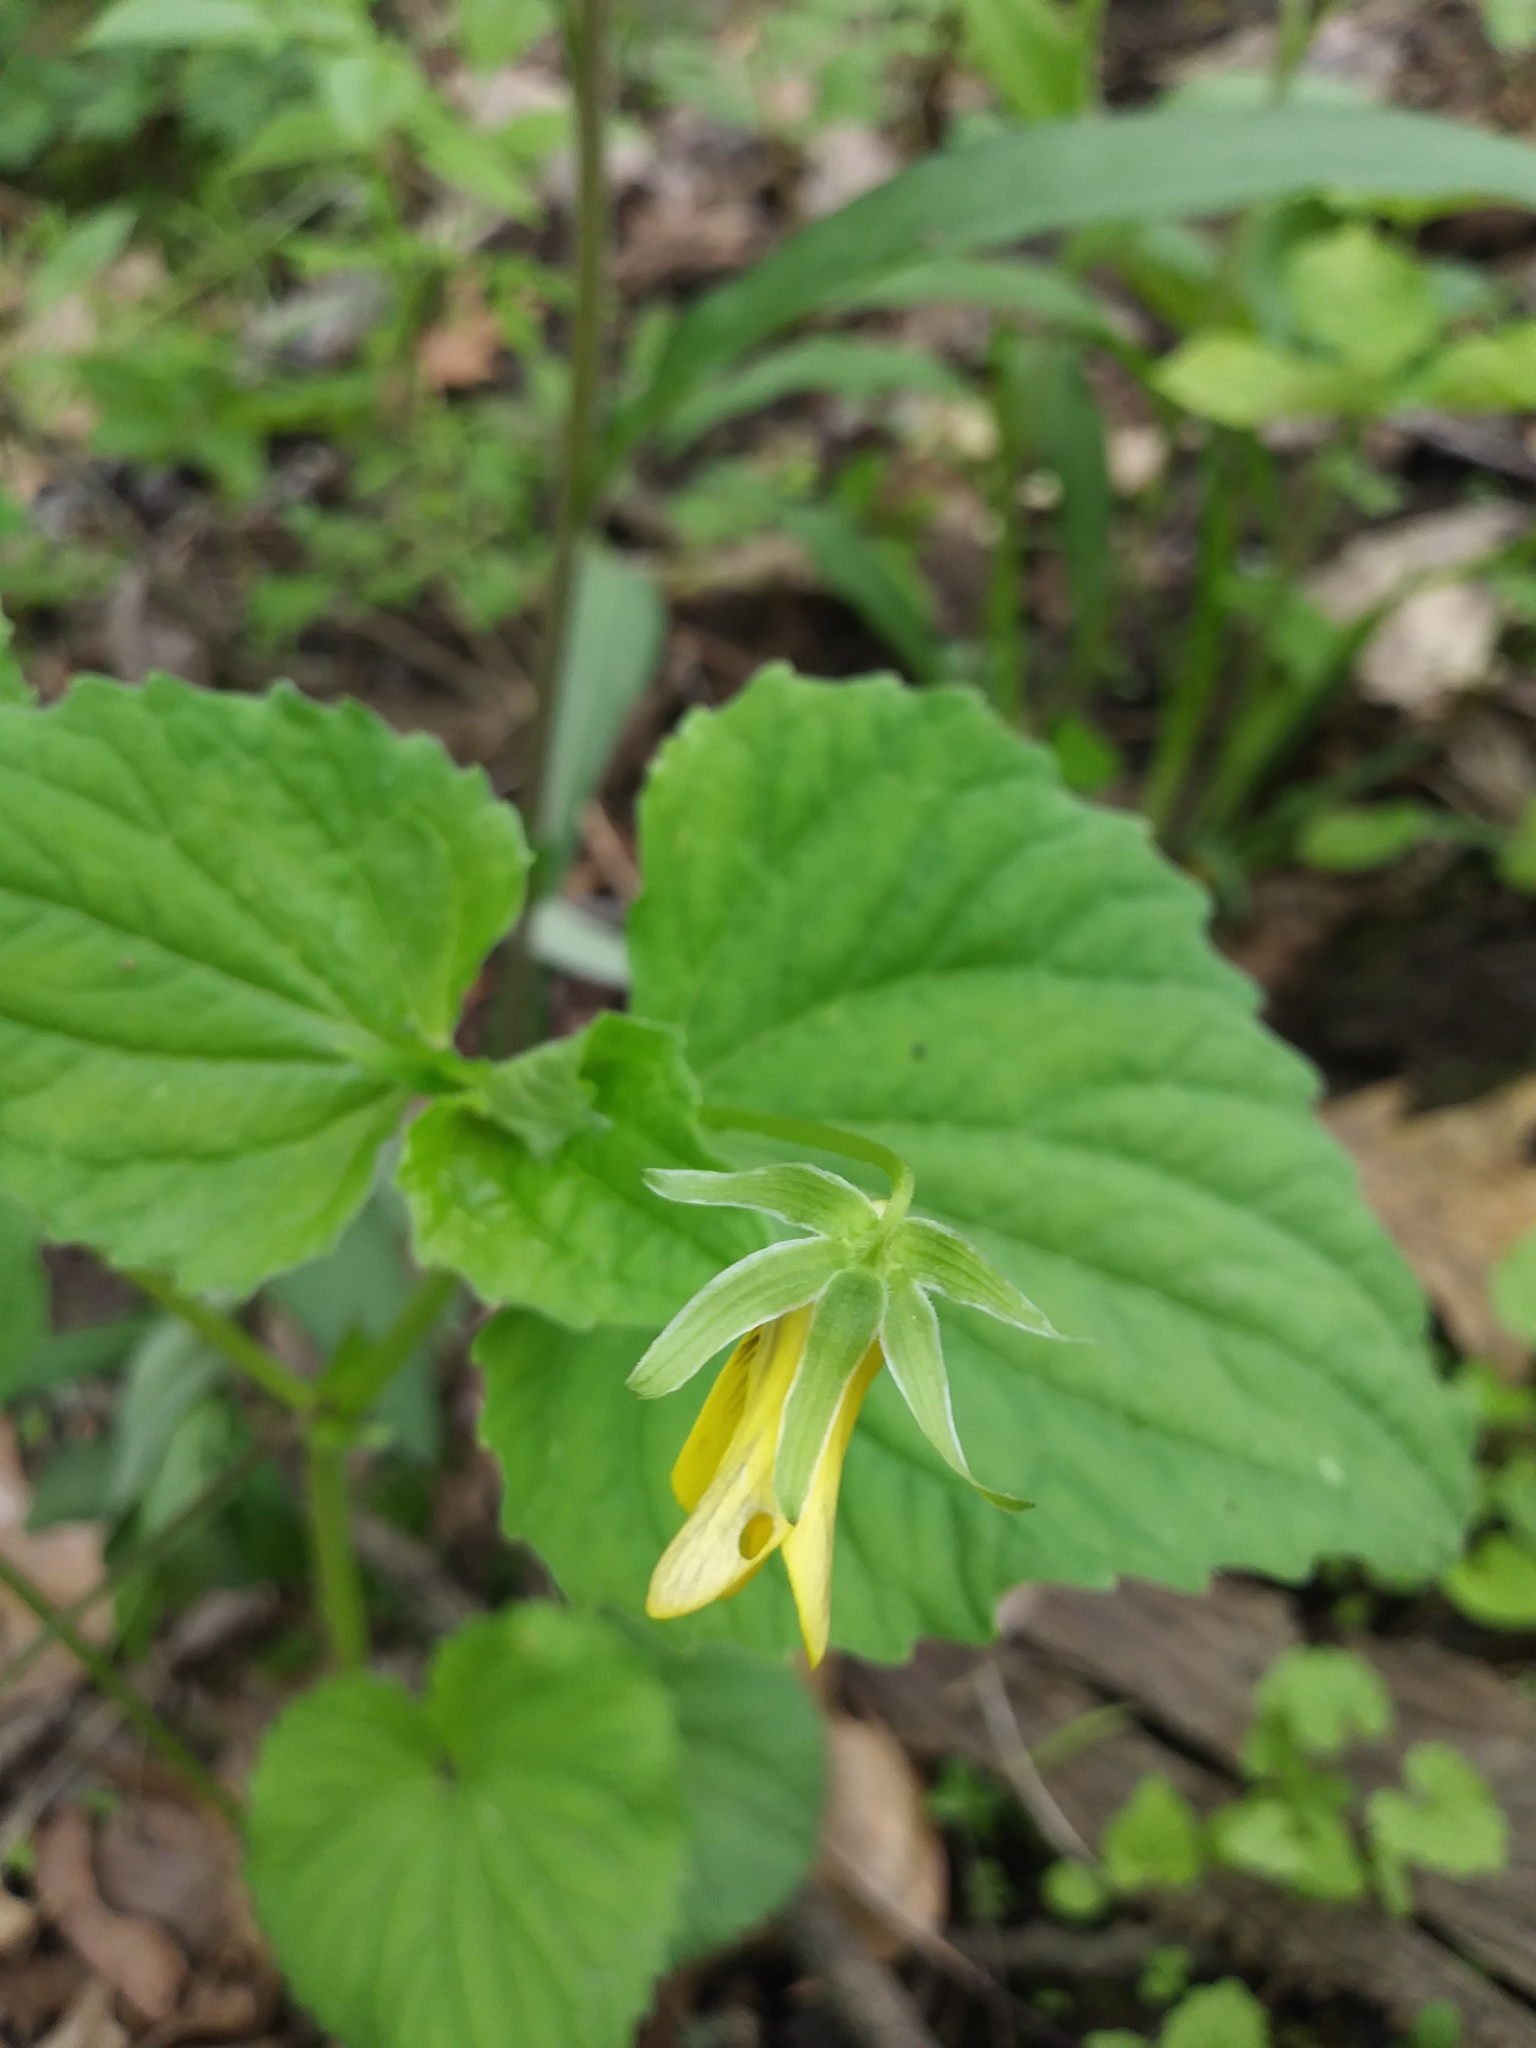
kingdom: Plantae
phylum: Tracheophyta
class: Magnoliopsida
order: Malpighiales
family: Violaceae
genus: Viola
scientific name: Viola eriocarpa
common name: Smooth yellow violet
